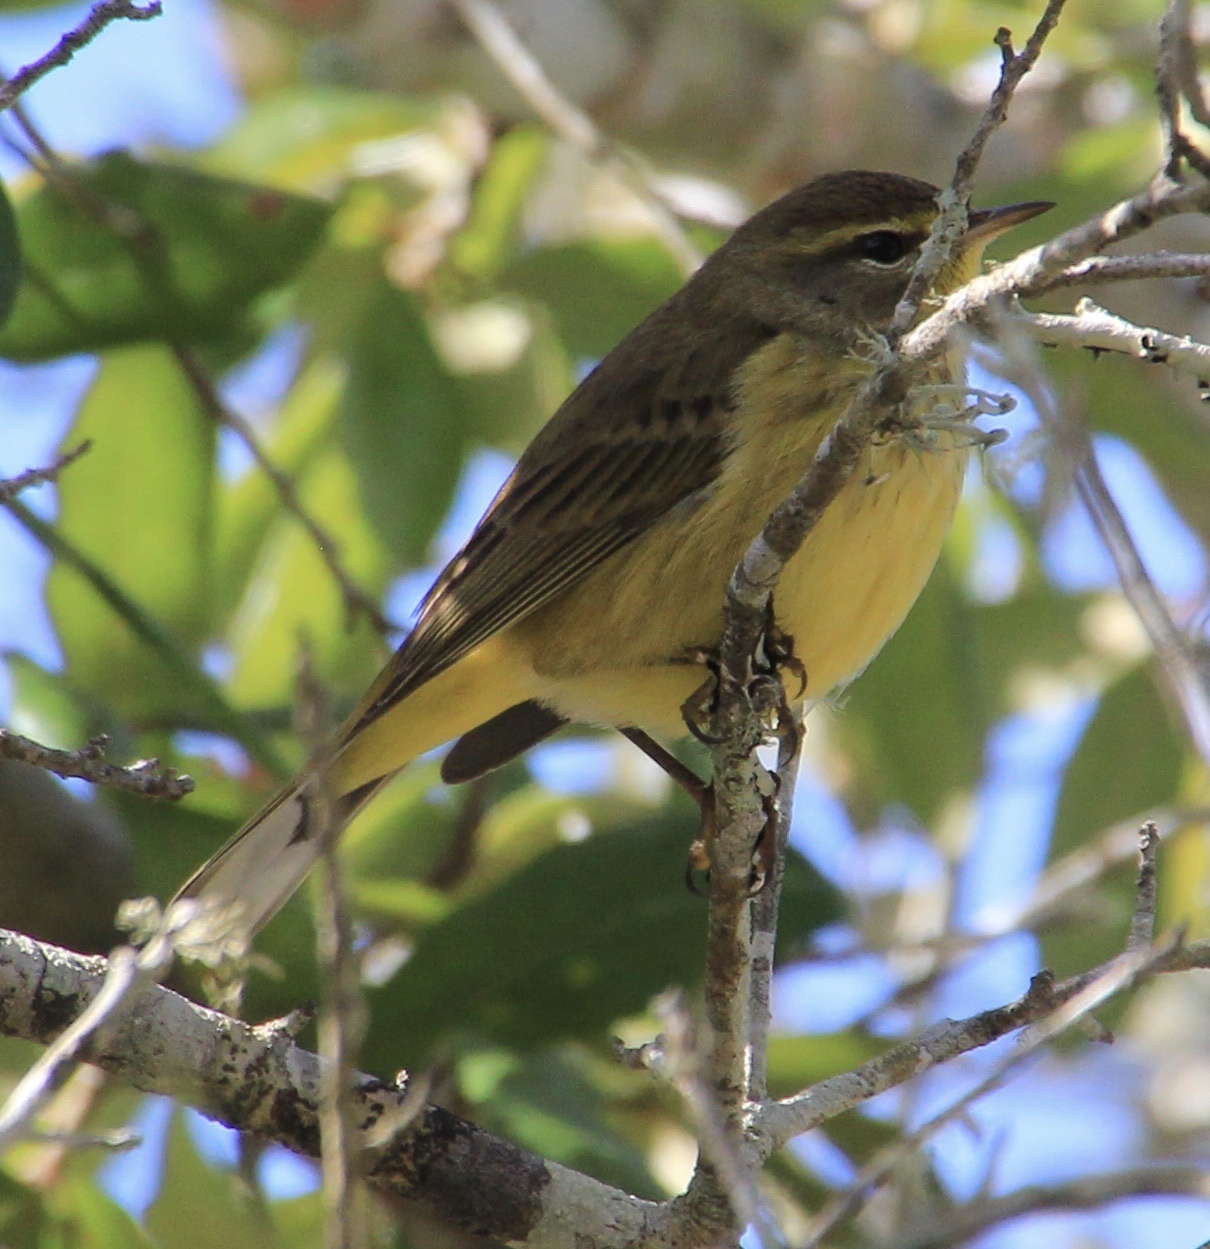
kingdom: Animalia
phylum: Chordata
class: Aves
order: Passeriformes
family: Parulidae
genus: Setophaga
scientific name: Setophaga palmarum
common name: Palm warbler
